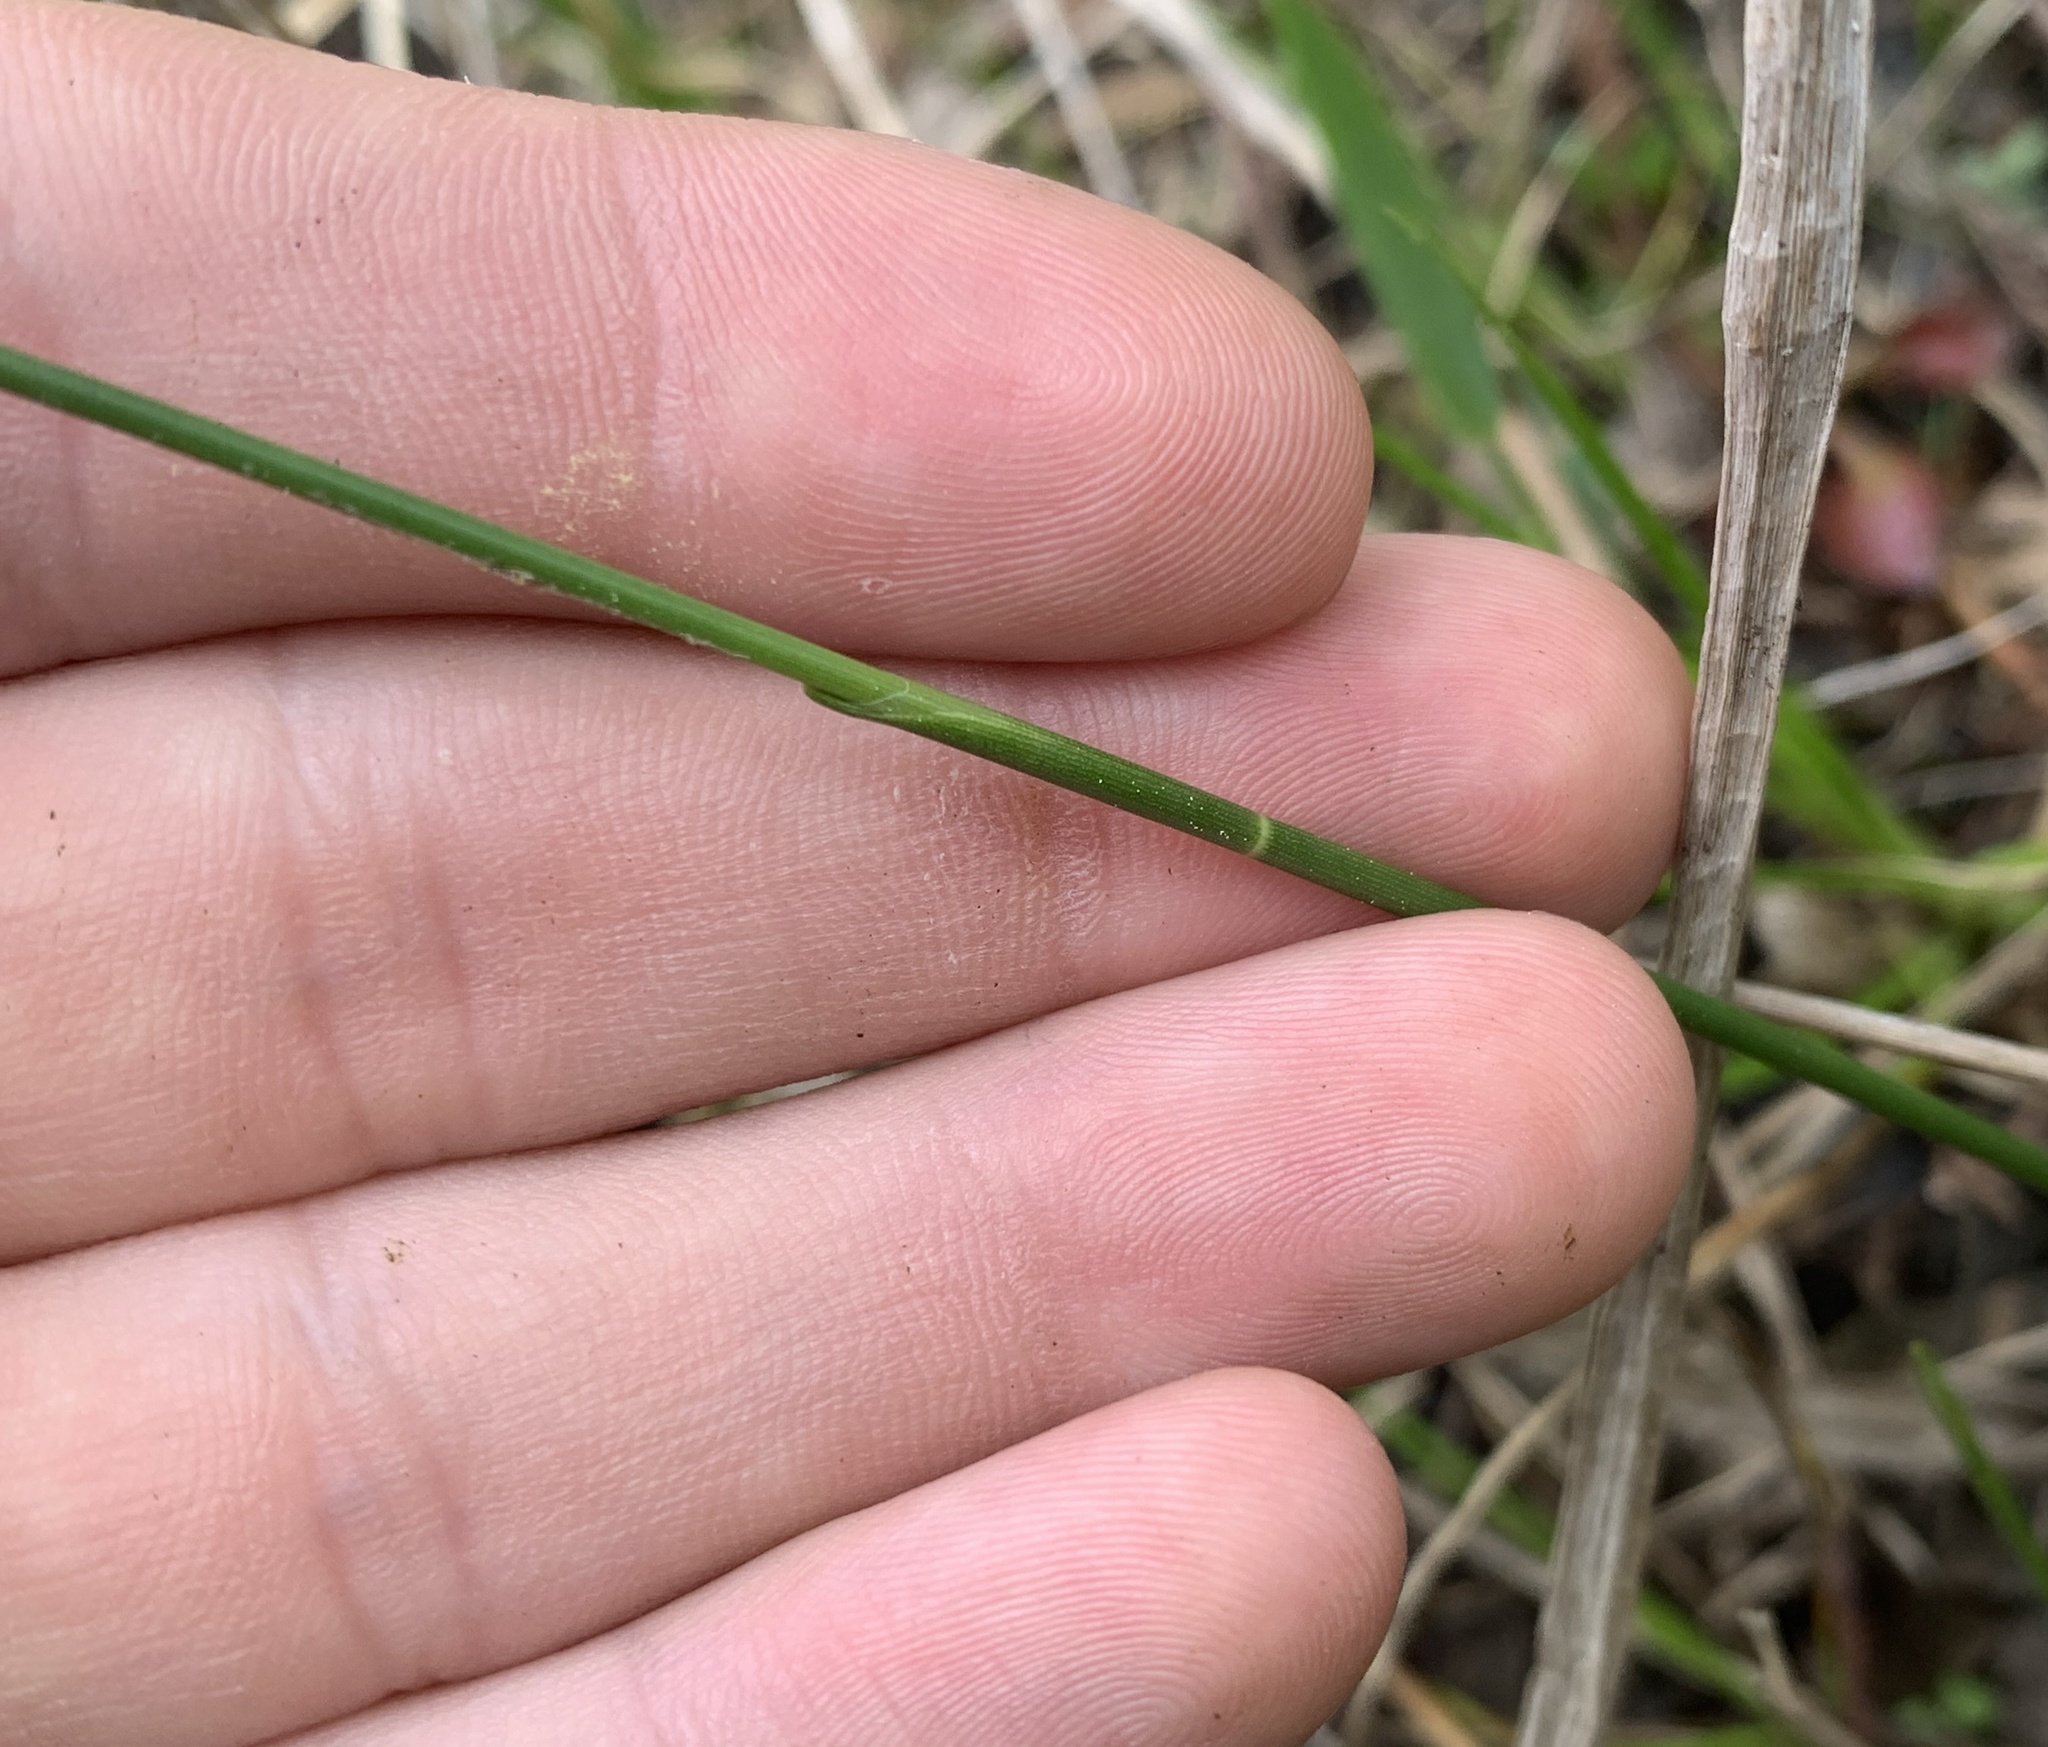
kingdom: Plantae
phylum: Tracheophyta
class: Liliopsida
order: Poales
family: Cyperaceae
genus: Fuirena
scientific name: Fuirena scirpoidea
